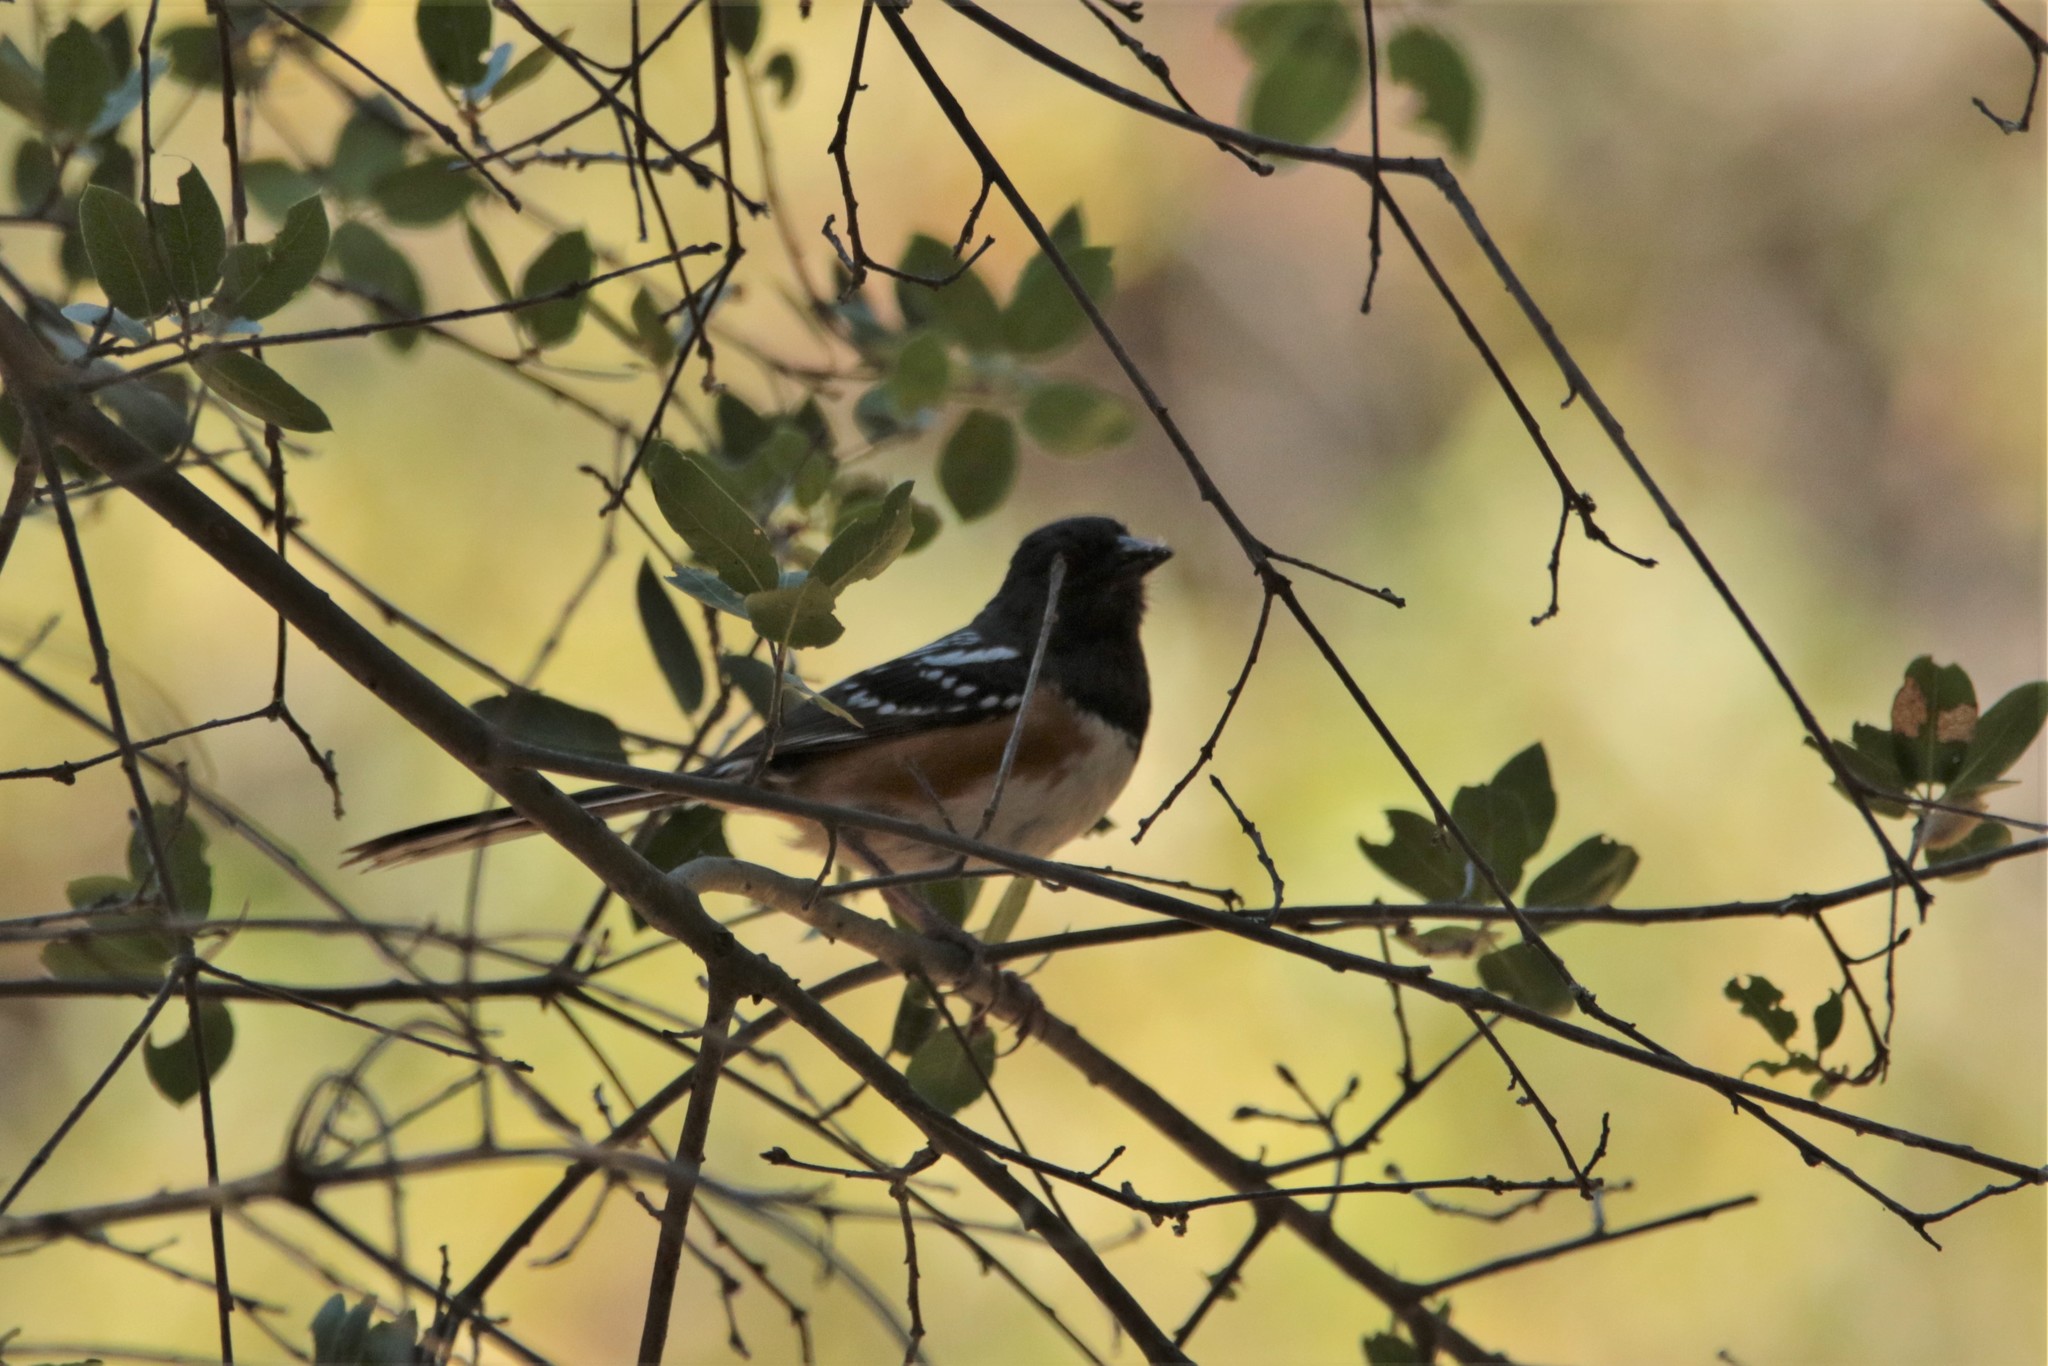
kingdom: Animalia
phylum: Chordata
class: Aves
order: Passeriformes
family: Passerellidae
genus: Pipilo
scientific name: Pipilo maculatus
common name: Spotted towhee
